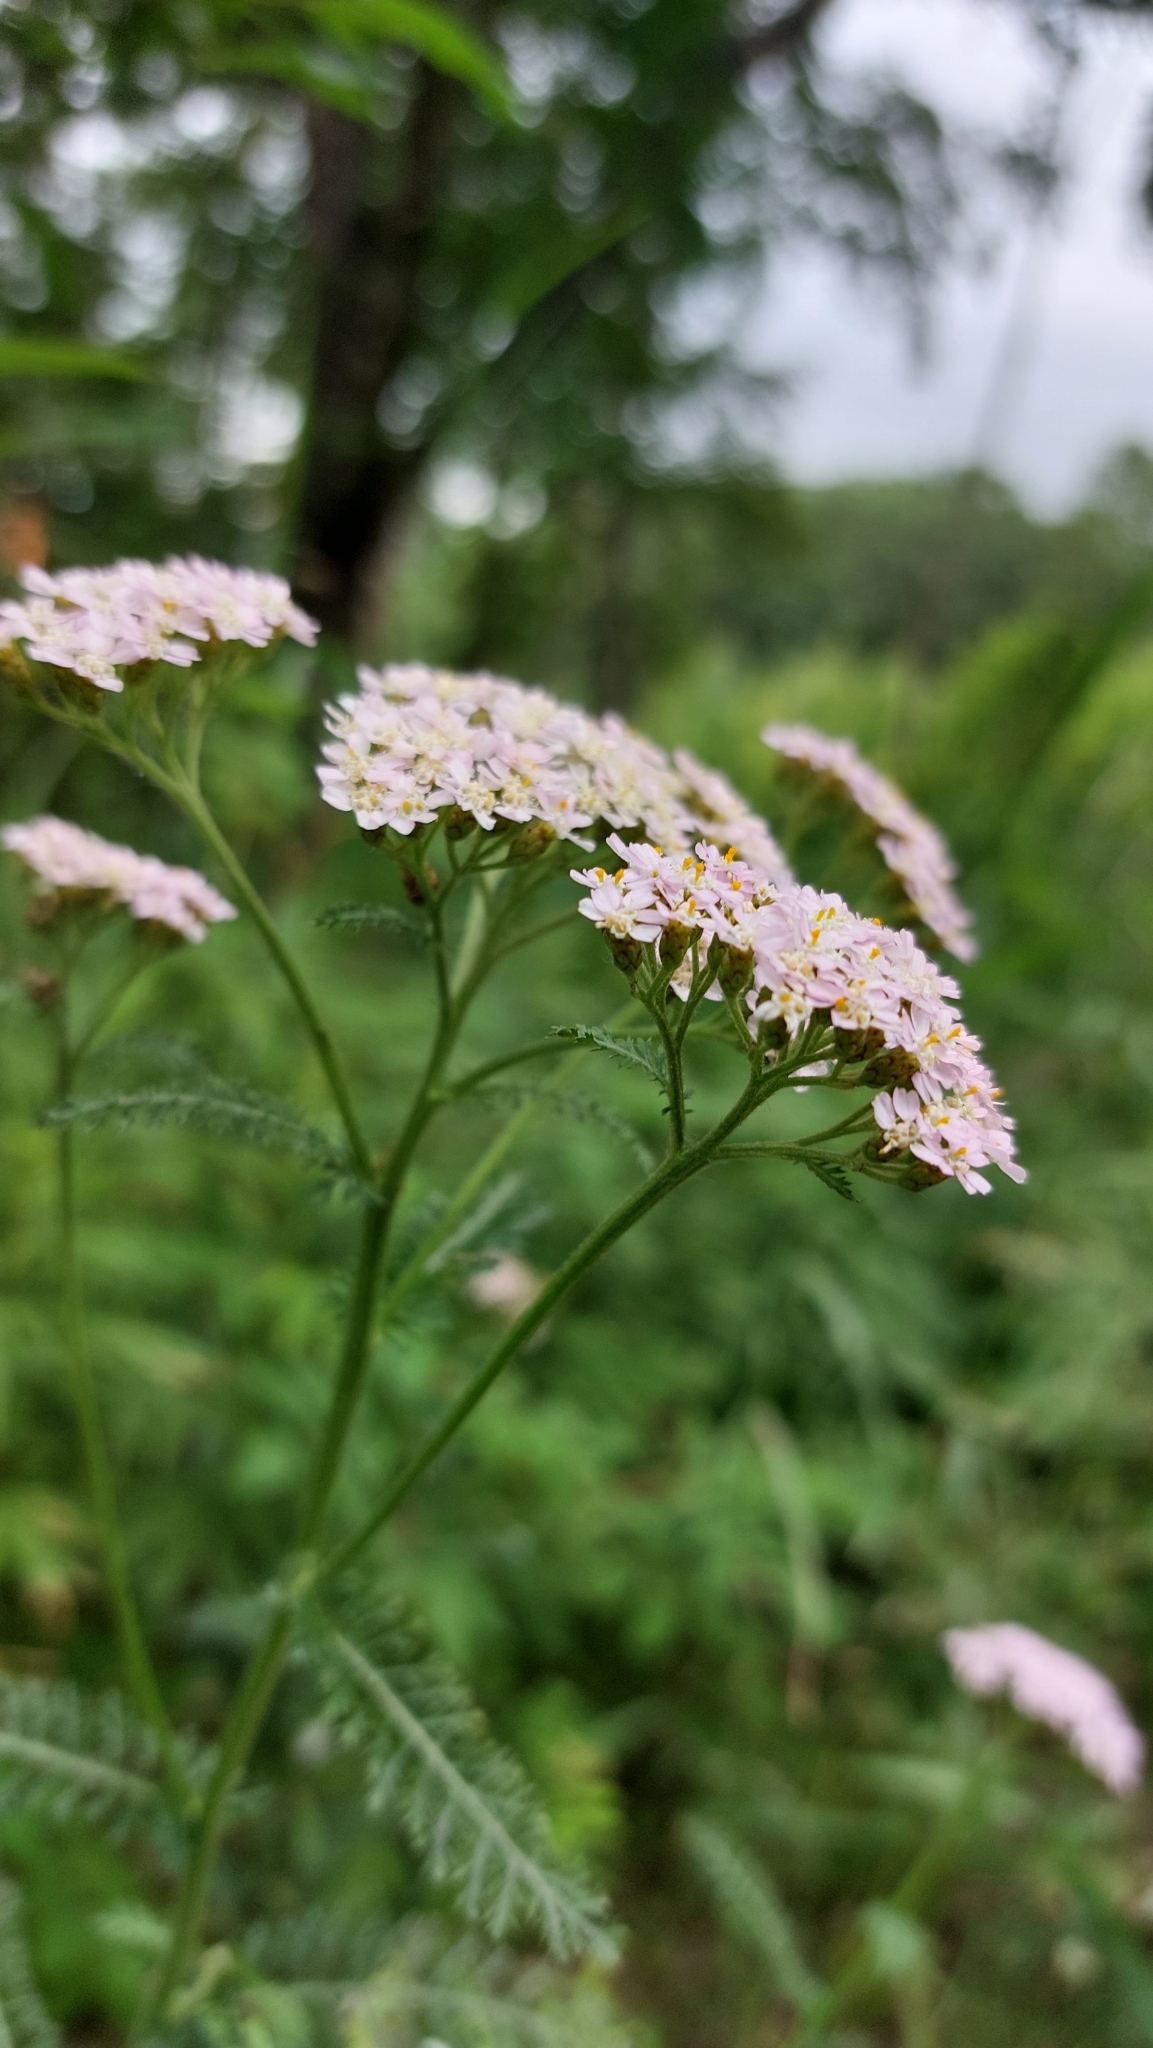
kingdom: Plantae
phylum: Tracheophyta
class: Magnoliopsida
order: Asterales
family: Asteraceae
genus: Achillea
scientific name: Achillea millefolium
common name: Yarrow
